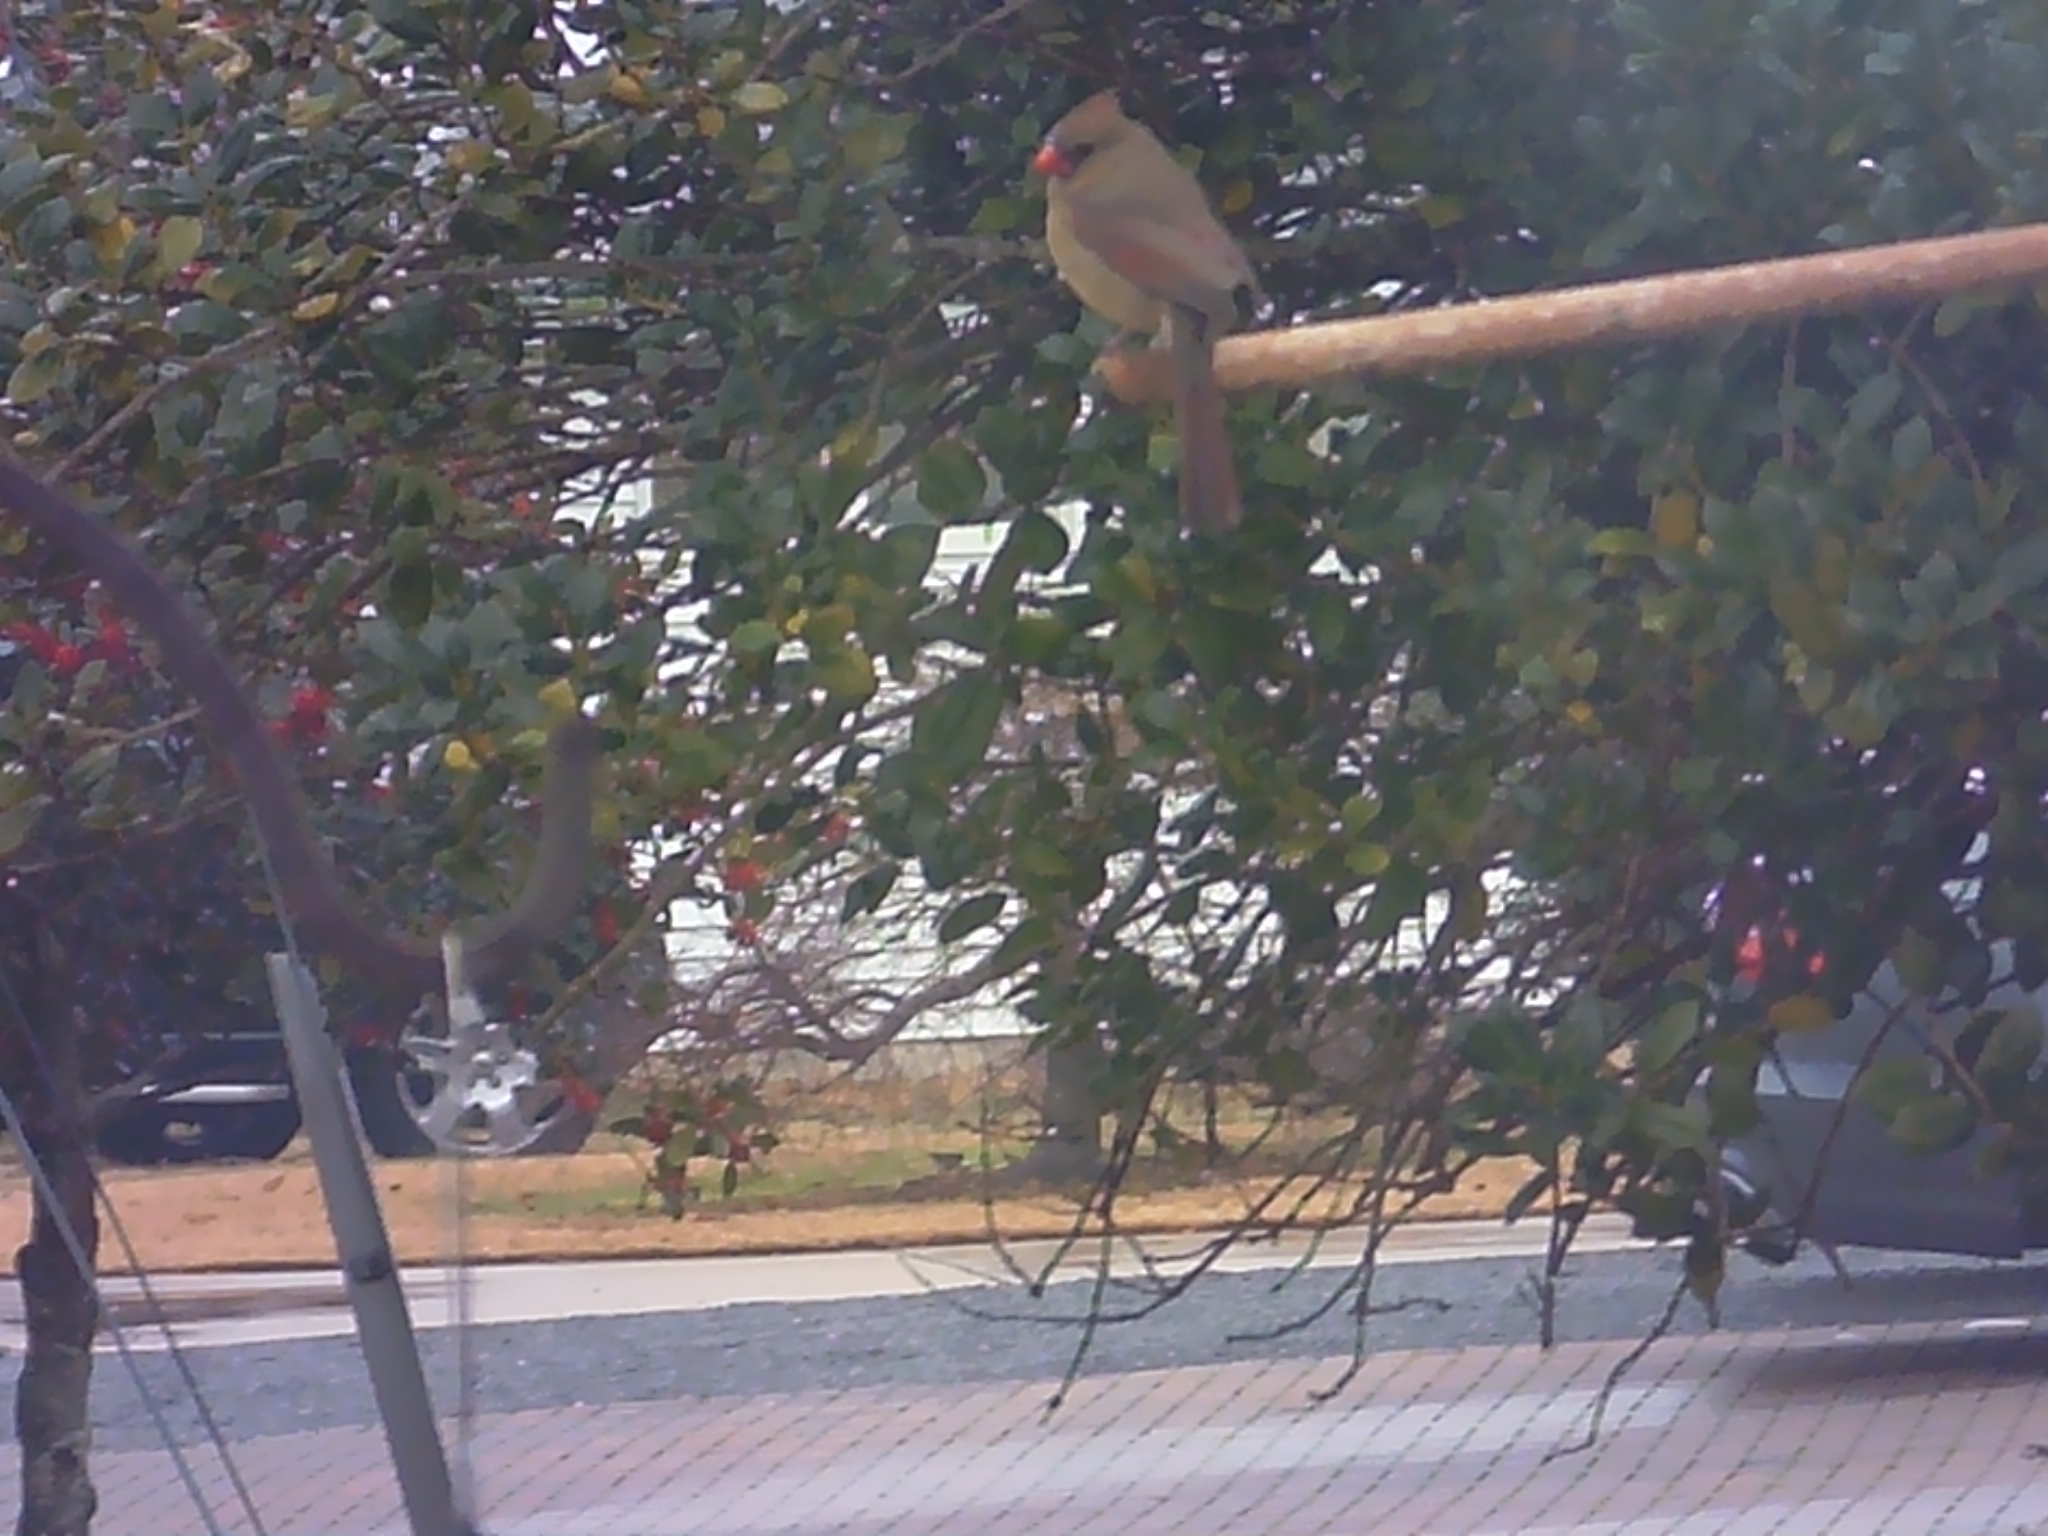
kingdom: Animalia
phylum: Chordata
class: Aves
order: Passeriformes
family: Cardinalidae
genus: Cardinalis
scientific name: Cardinalis cardinalis
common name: Northern cardinal
